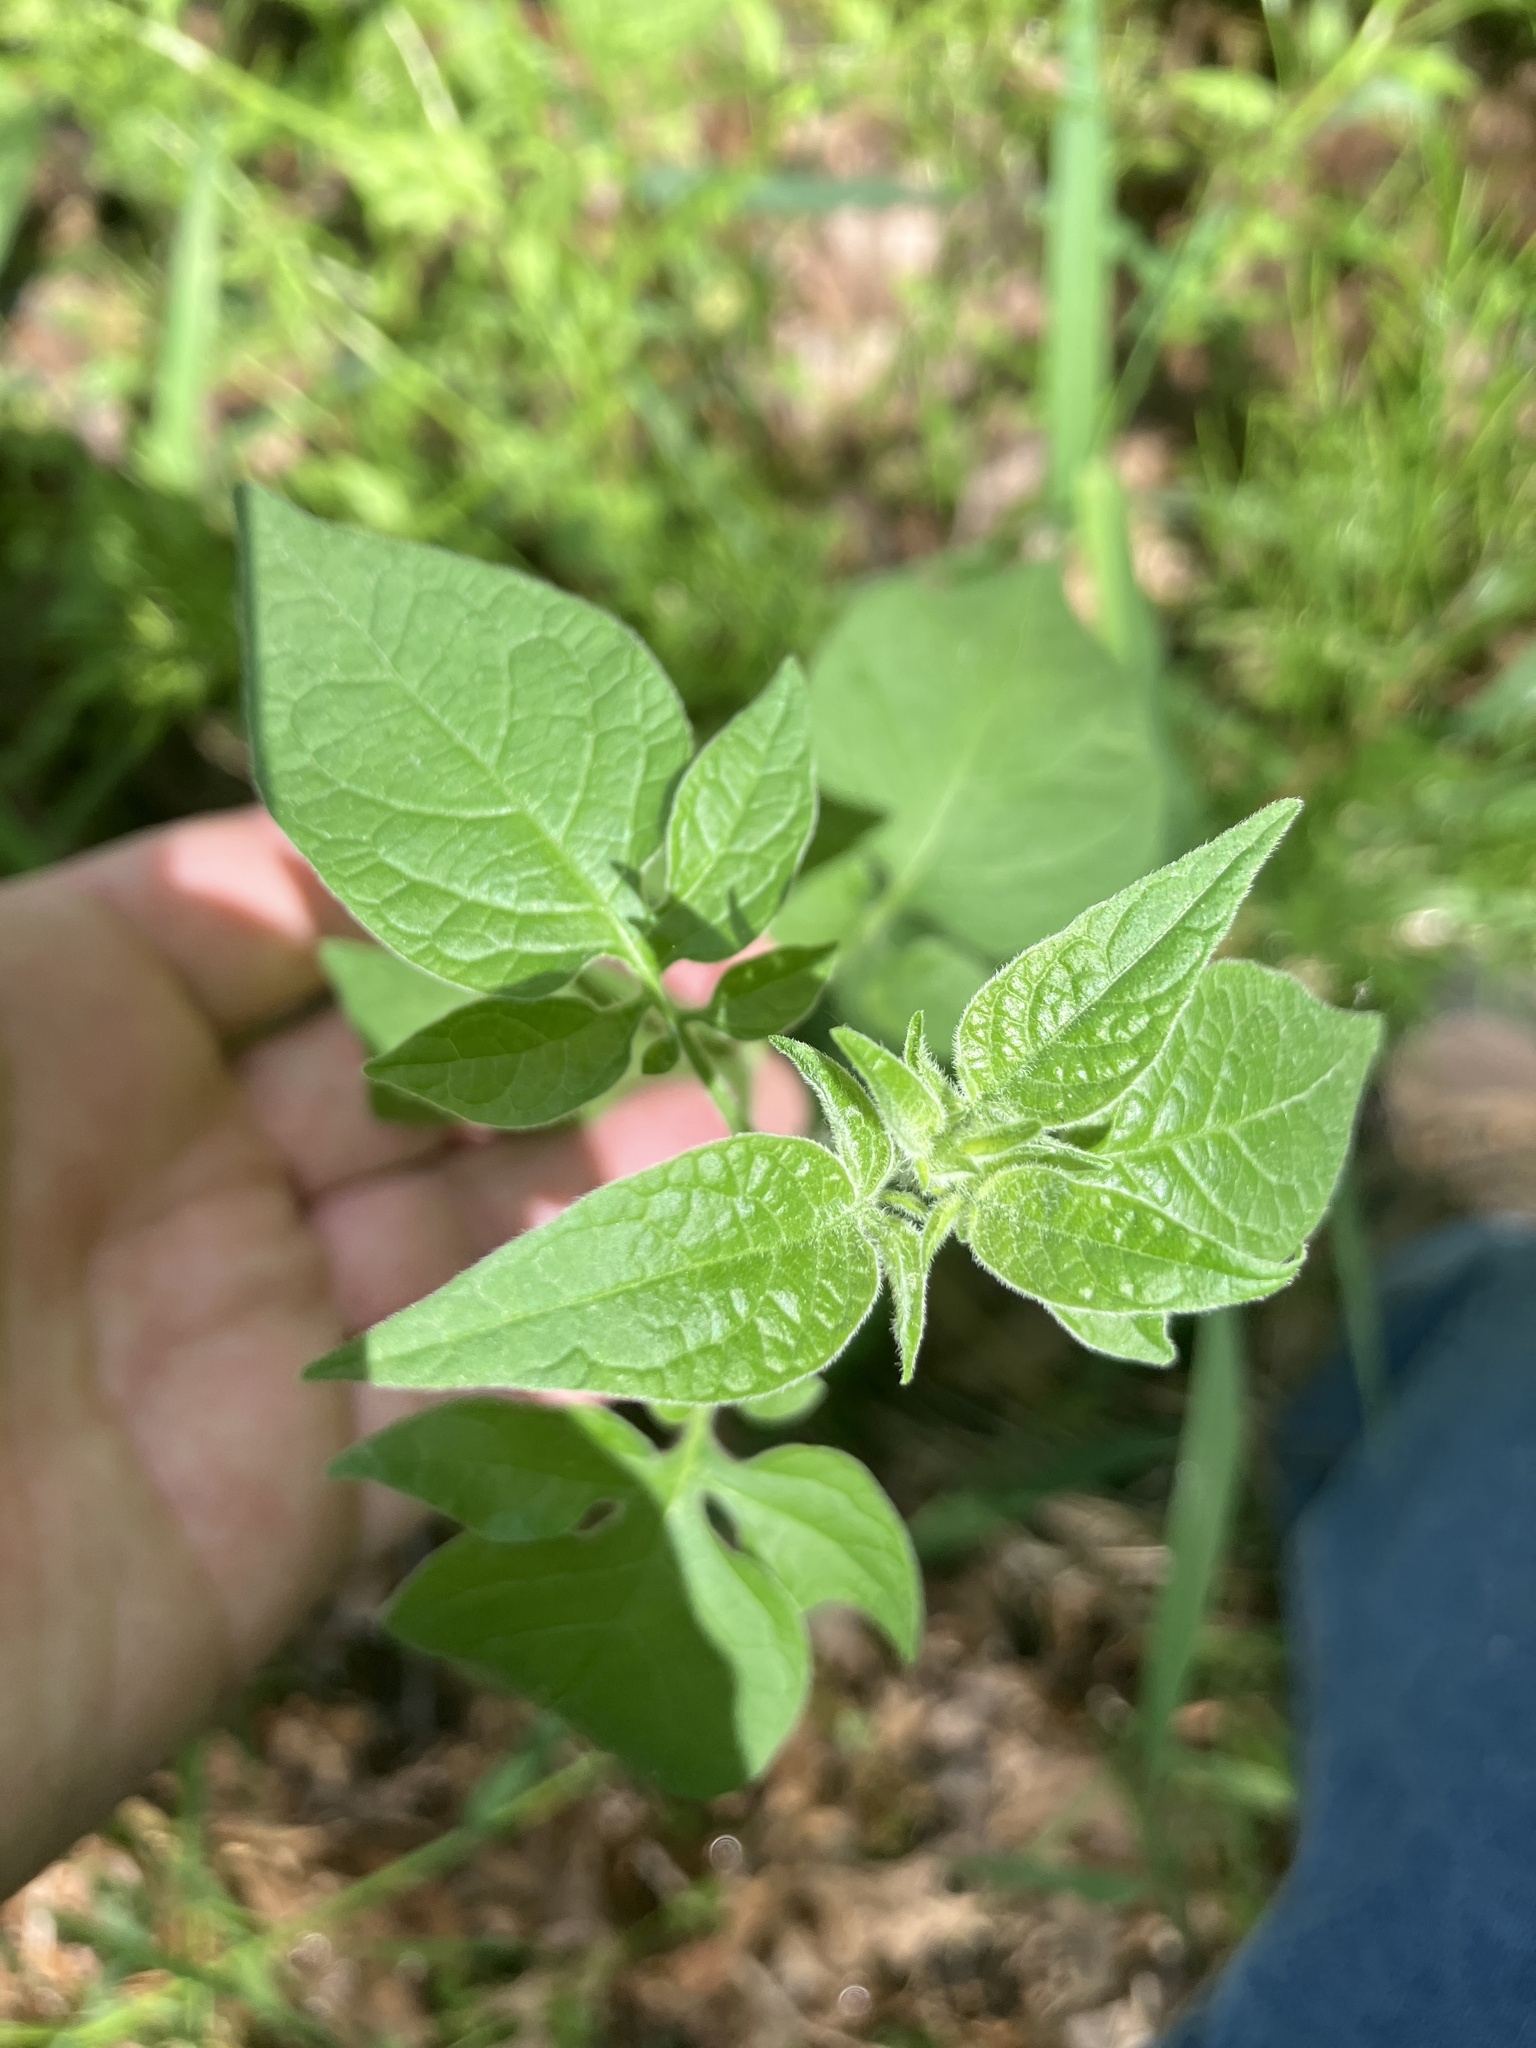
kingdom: Plantae
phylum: Tracheophyta
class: Magnoliopsida
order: Solanales
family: Solanaceae
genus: Solanum
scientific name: Solanum dulcamara
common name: Climbing nightshade
